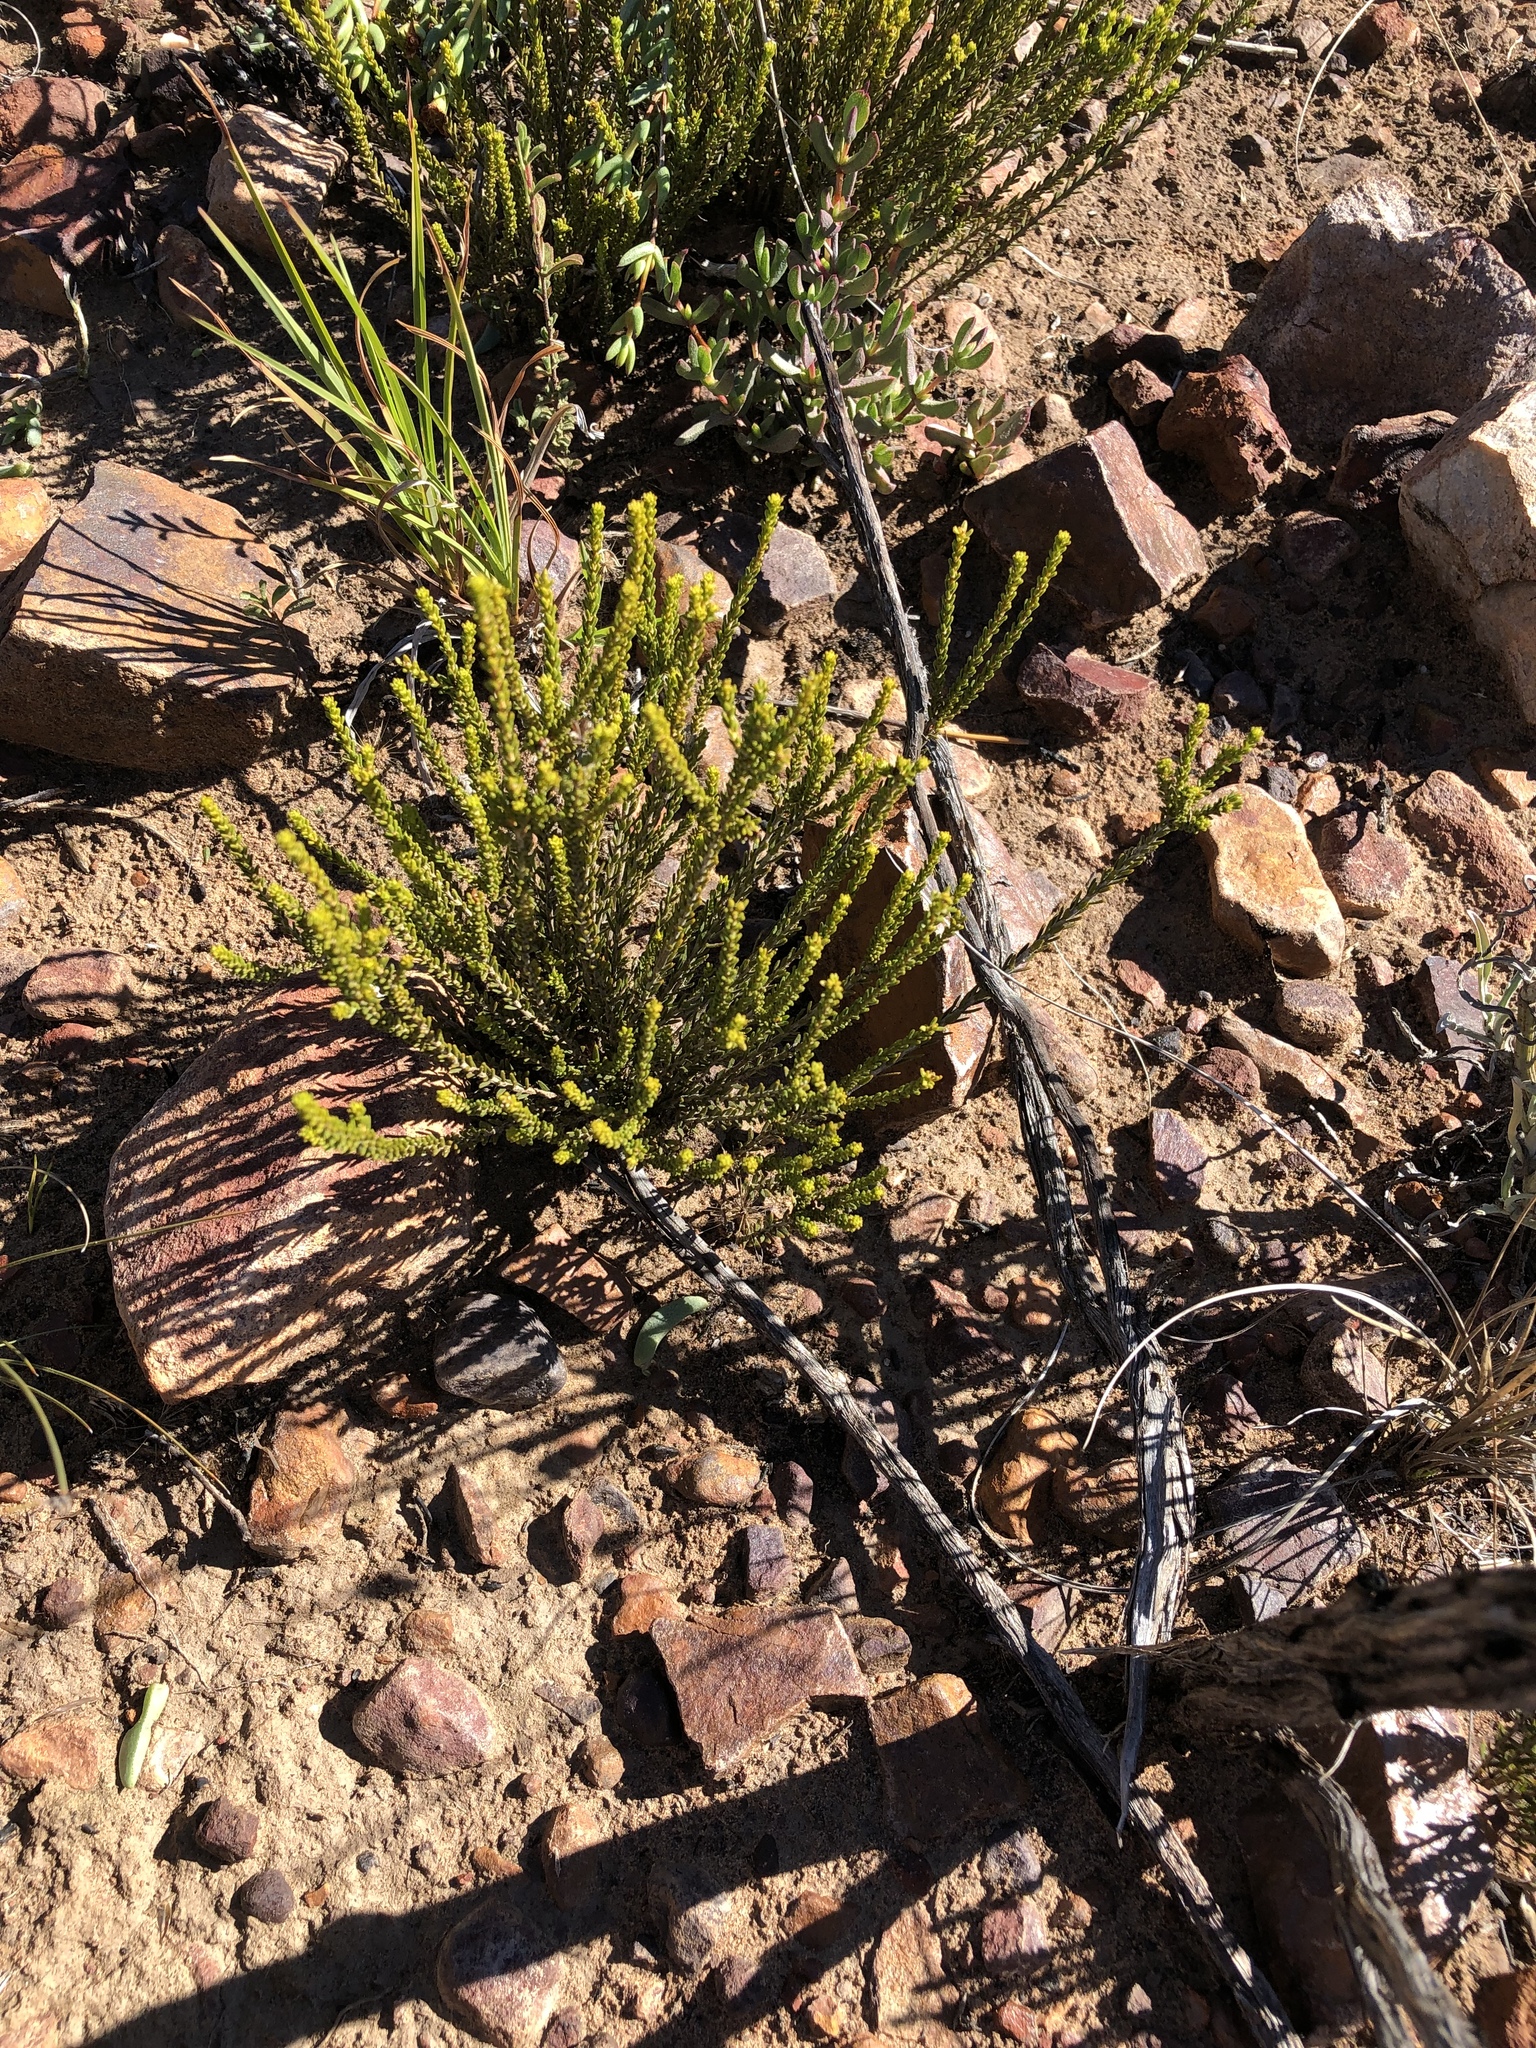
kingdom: Plantae
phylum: Tracheophyta
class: Magnoliopsida
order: Sapindales
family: Rutaceae
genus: Agathosma
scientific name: Agathosma capensis
